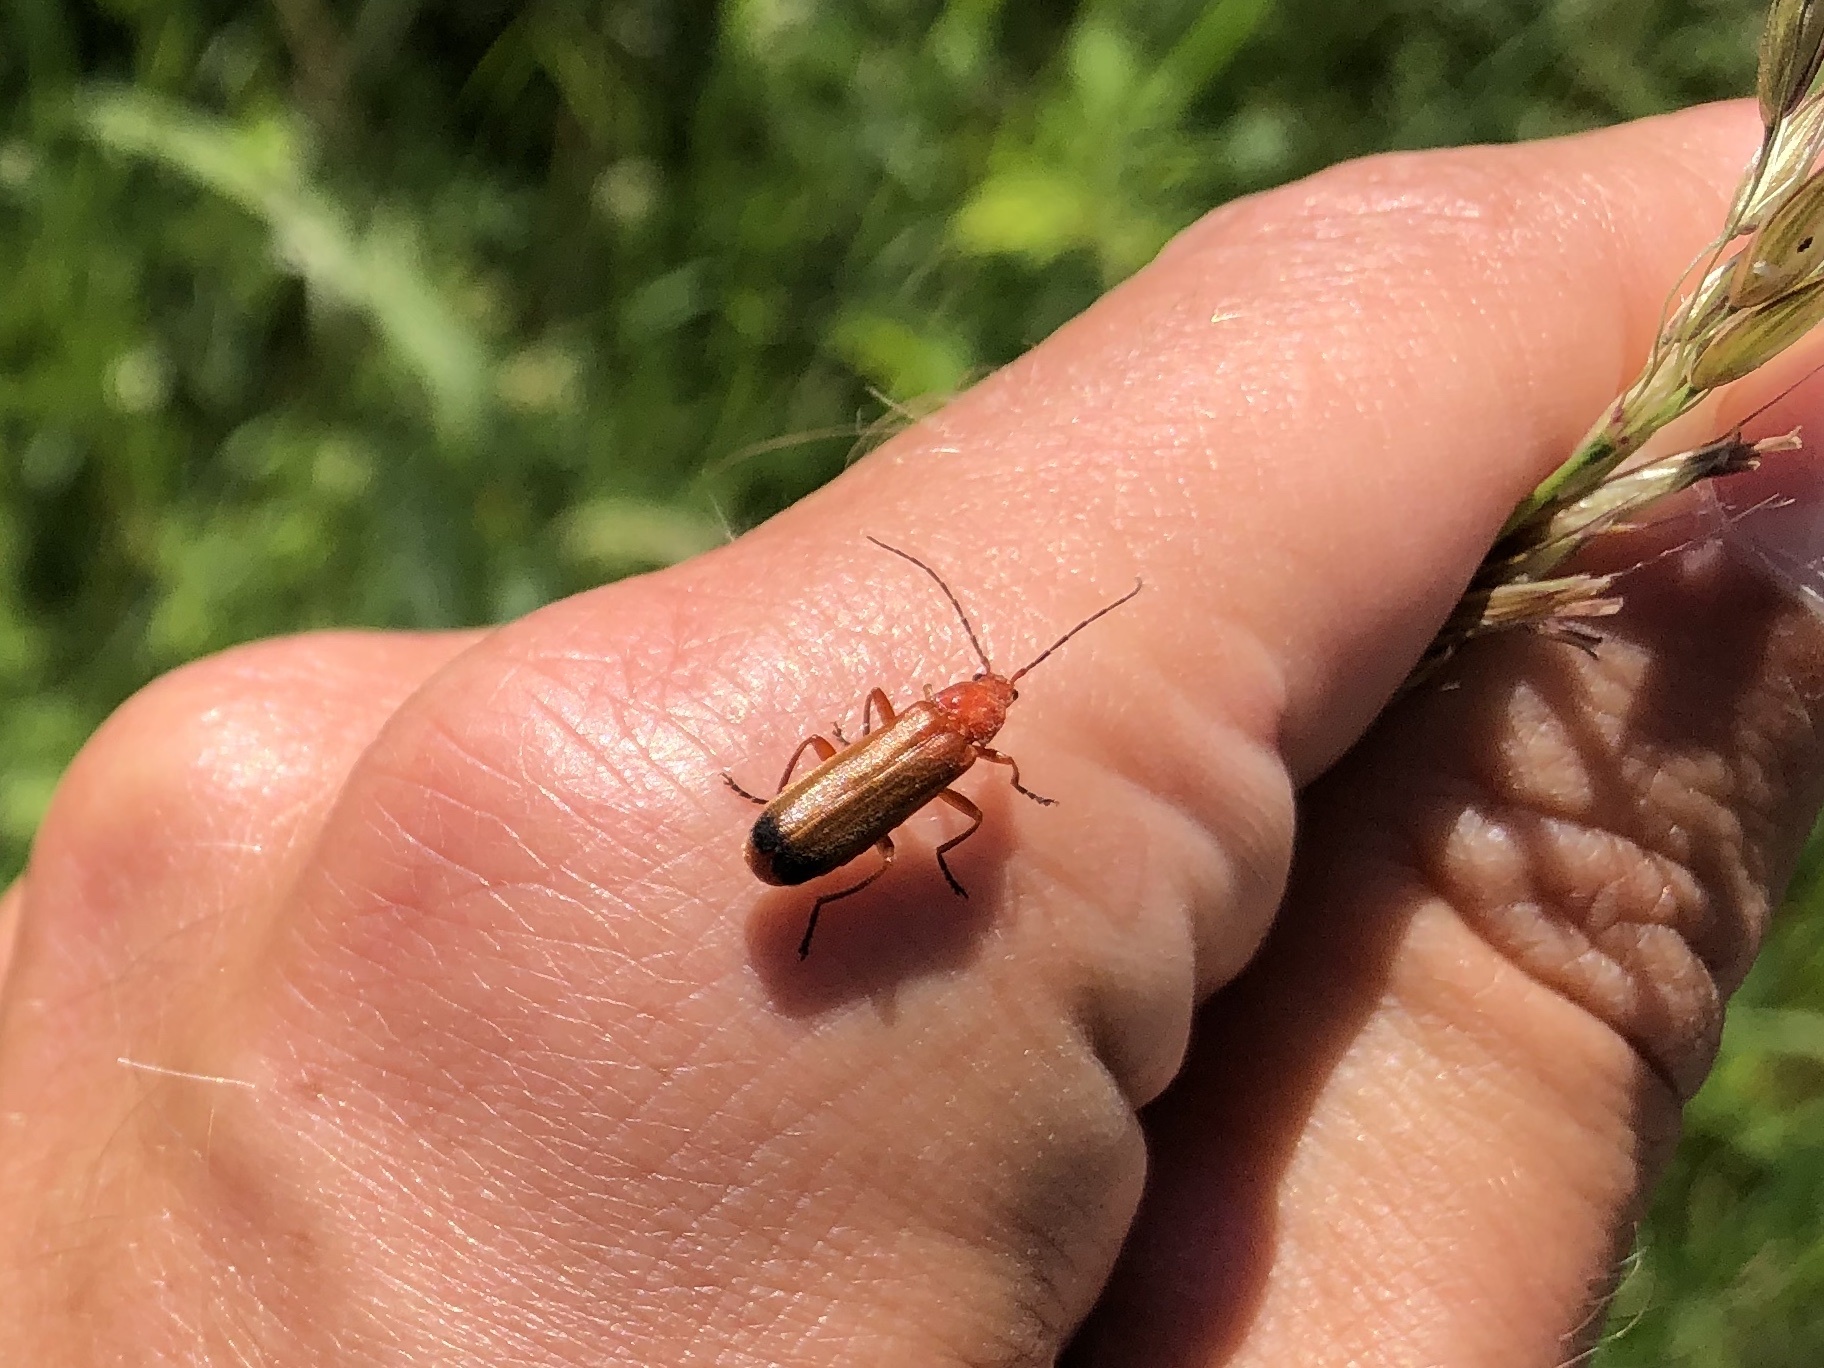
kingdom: Animalia
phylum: Arthropoda
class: Insecta
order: Coleoptera
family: Cantharidae
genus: Rhagonycha
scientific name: Rhagonycha fulva
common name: Common red soldier beetle
